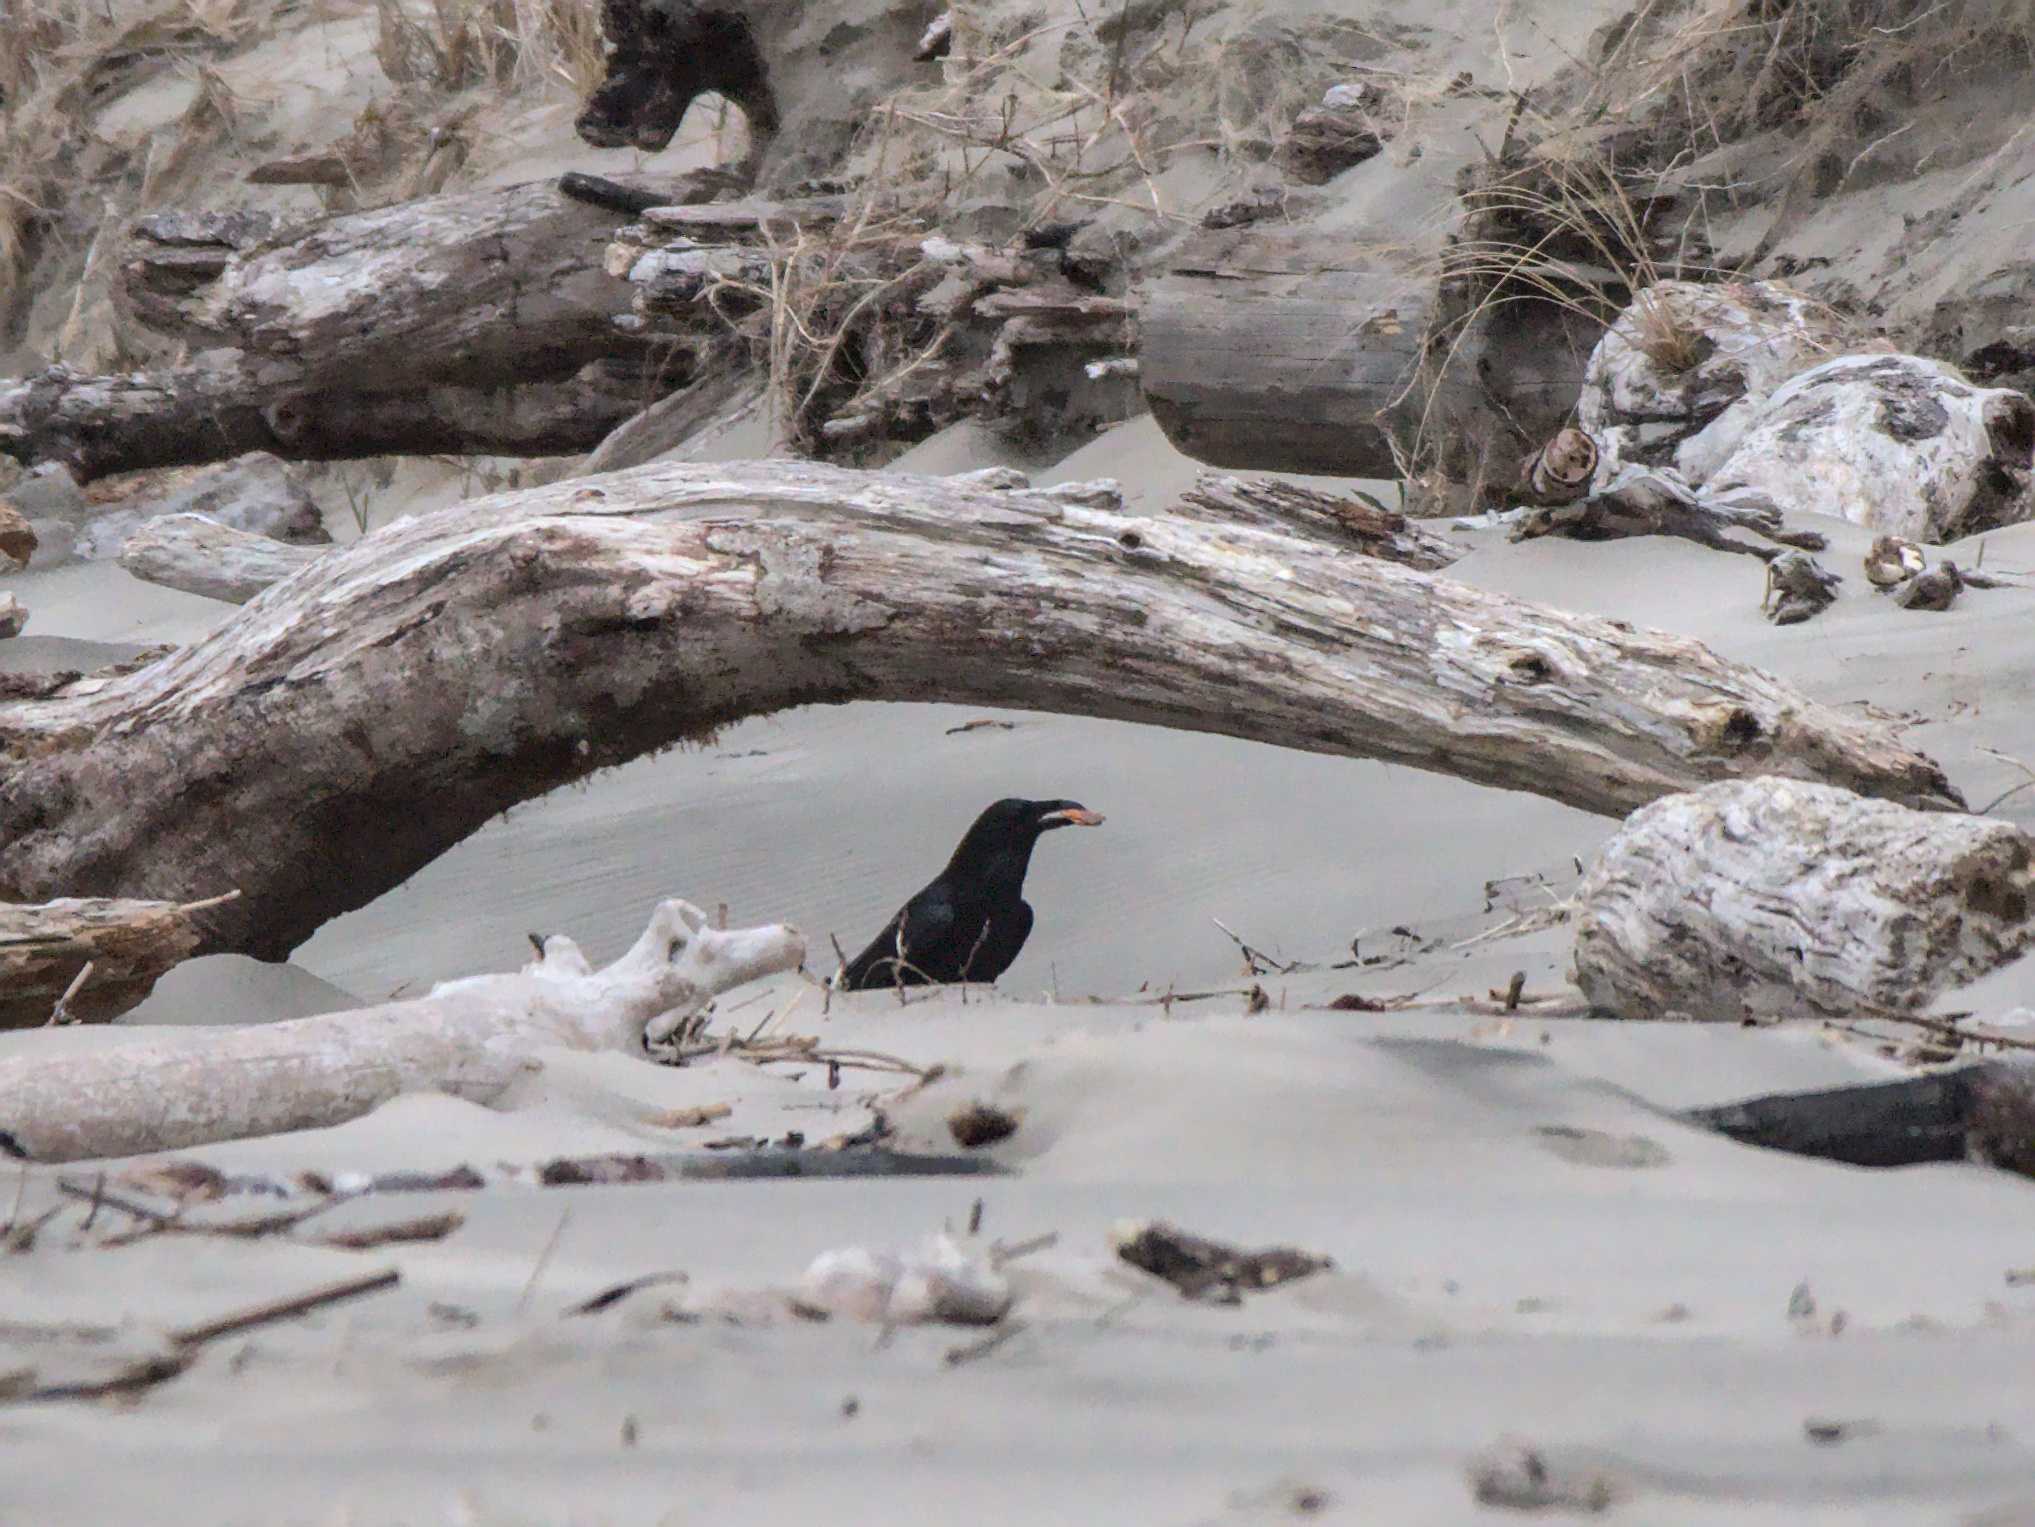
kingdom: Animalia
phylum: Chordata
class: Aves
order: Passeriformes
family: Corvidae
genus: Corvus
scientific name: Corvus corax
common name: Common raven
